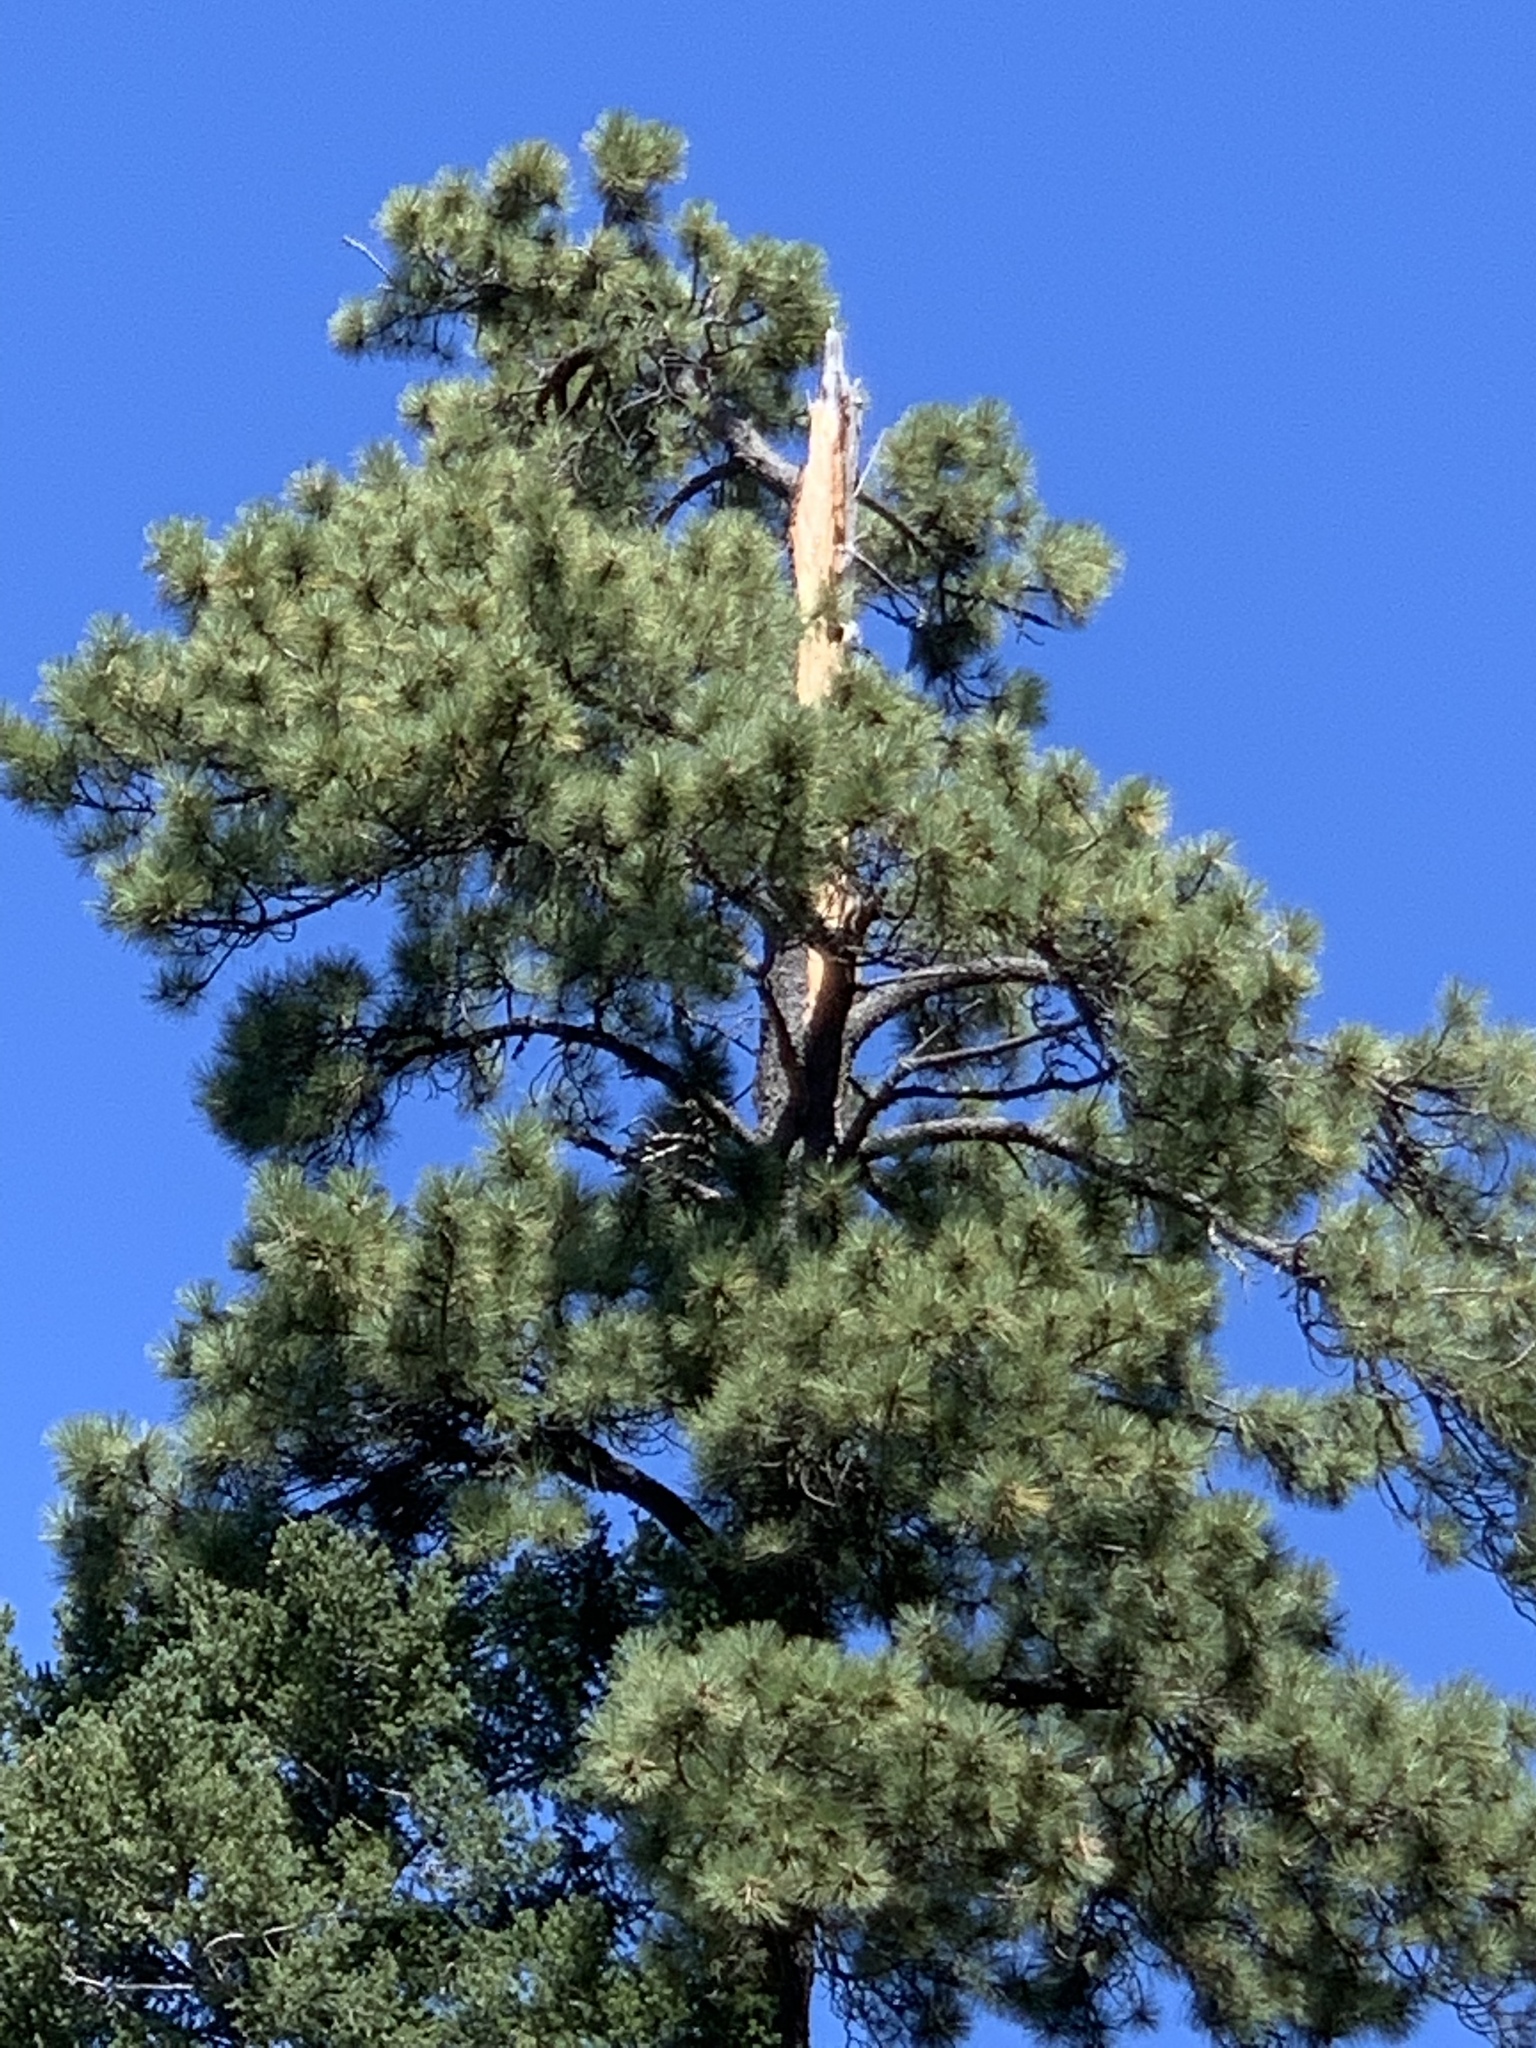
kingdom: Plantae
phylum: Tracheophyta
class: Pinopsida
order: Pinales
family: Pinaceae
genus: Pinus
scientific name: Pinus ponderosa
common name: Western yellow-pine
